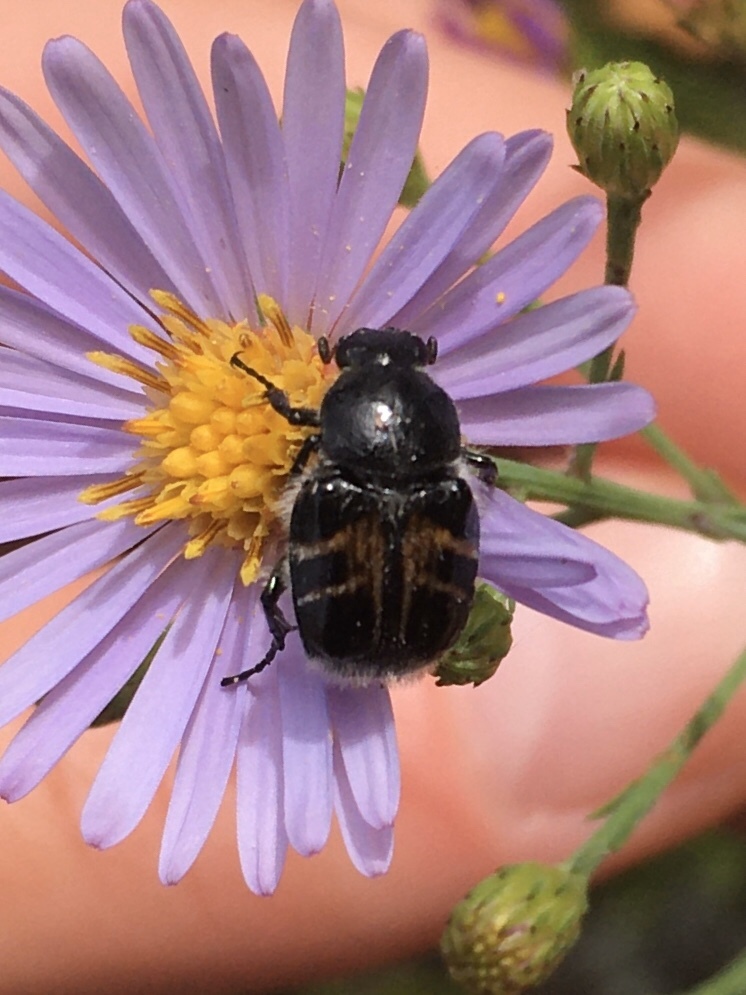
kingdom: Animalia
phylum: Arthropoda
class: Insecta
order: Coleoptera
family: Scarabaeidae
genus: Trichiotinus
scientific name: Trichiotinus assimilis
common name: Bee-mimic beetle
